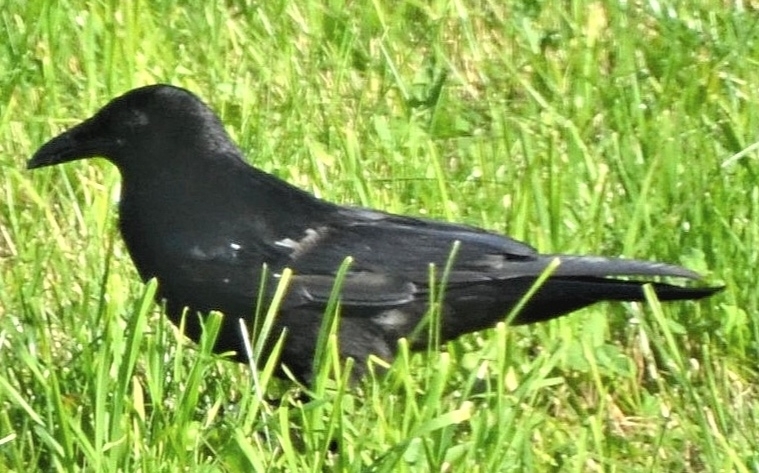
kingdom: Animalia
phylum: Chordata
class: Aves
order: Passeriformes
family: Corvidae
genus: Corvus
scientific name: Corvus
